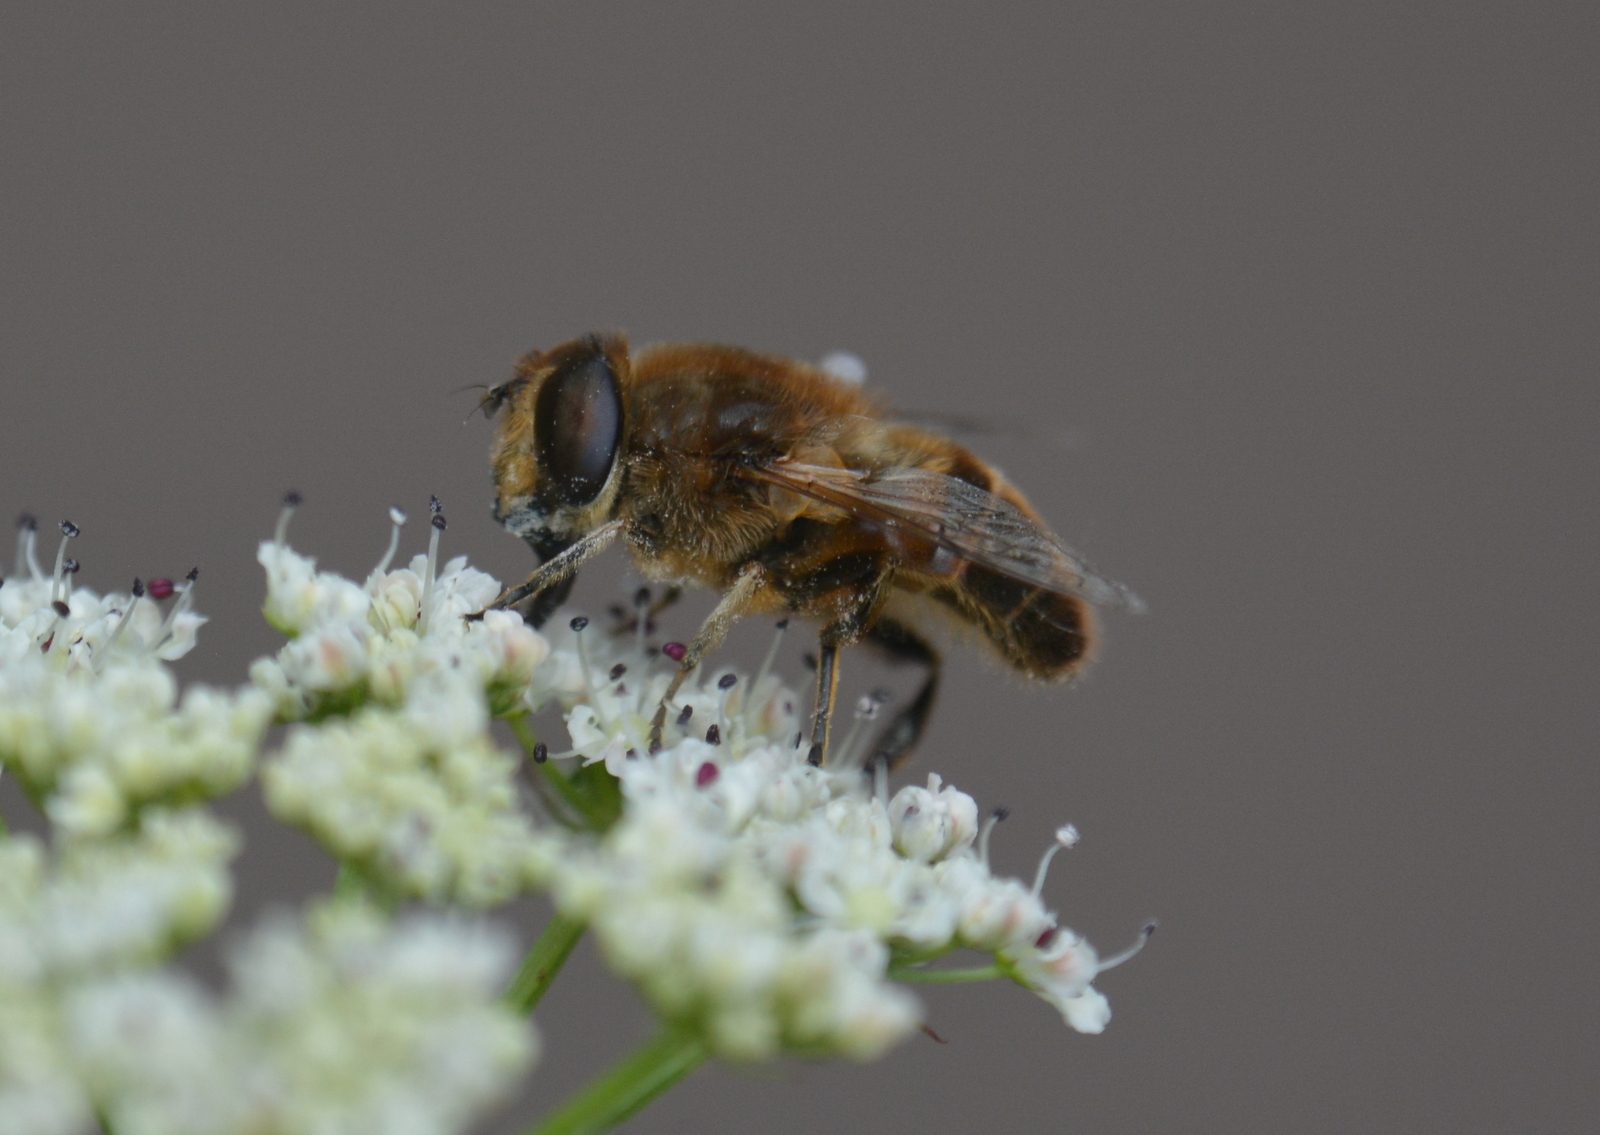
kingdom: Animalia
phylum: Arthropoda
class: Insecta
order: Diptera
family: Syrphidae
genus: Eristalis
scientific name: Eristalis tenax
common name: Drone fly
